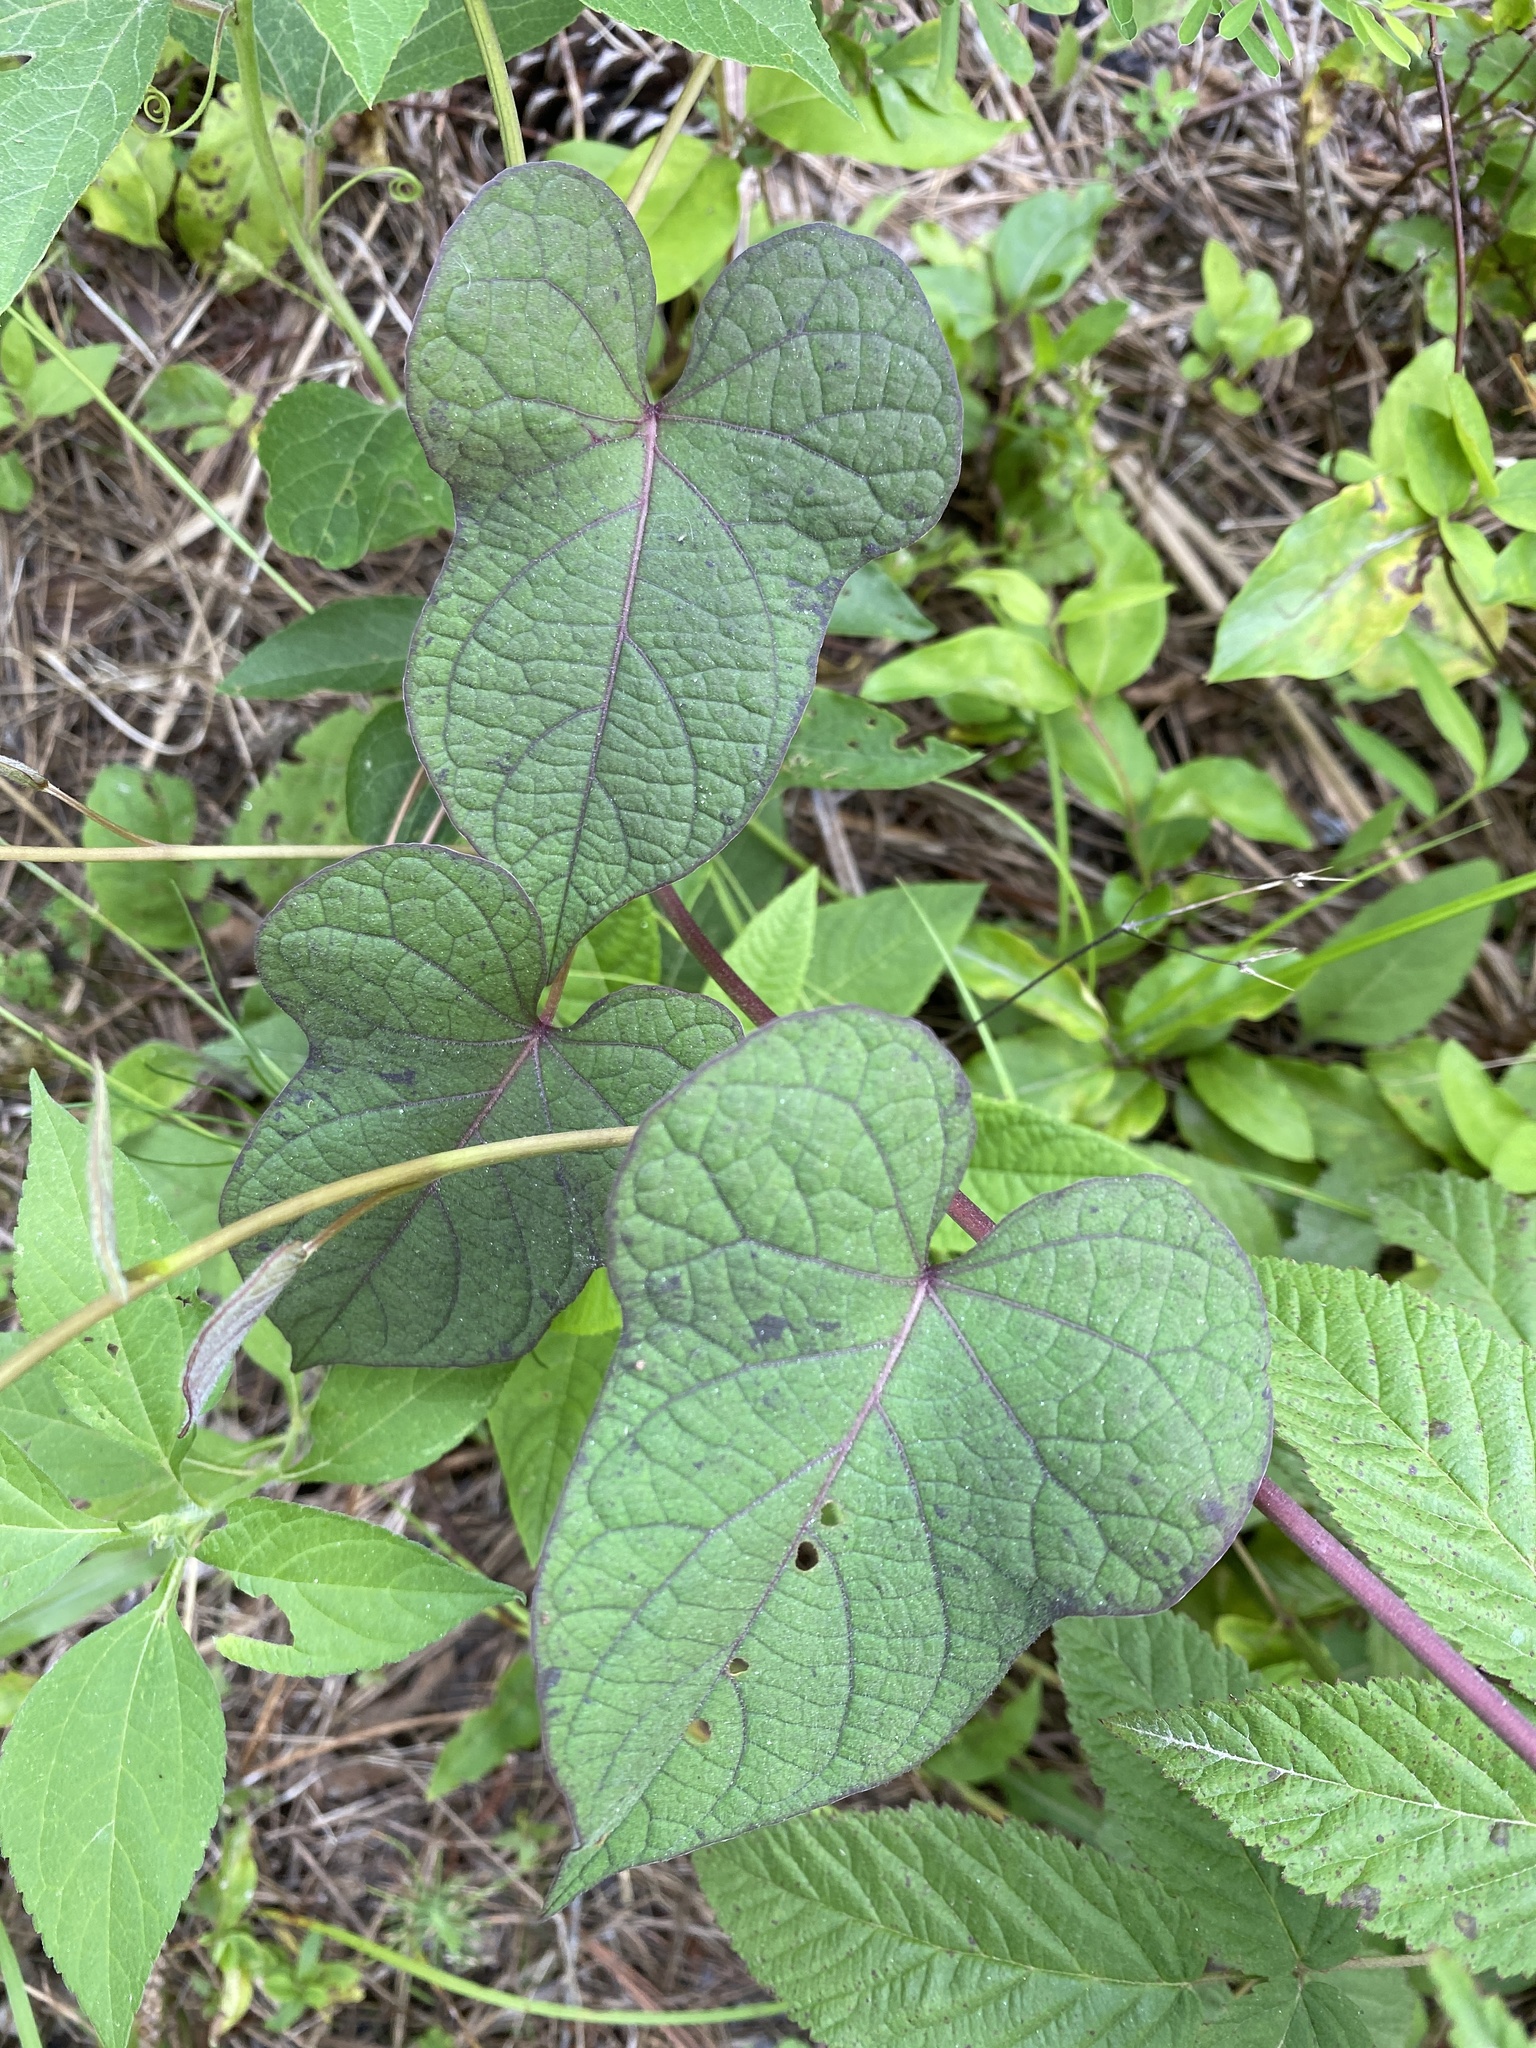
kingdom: Plantae
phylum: Tracheophyta
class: Magnoliopsida
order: Solanales
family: Convolvulaceae
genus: Ipomoea
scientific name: Ipomoea pandurata
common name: Man-of-the-earth
